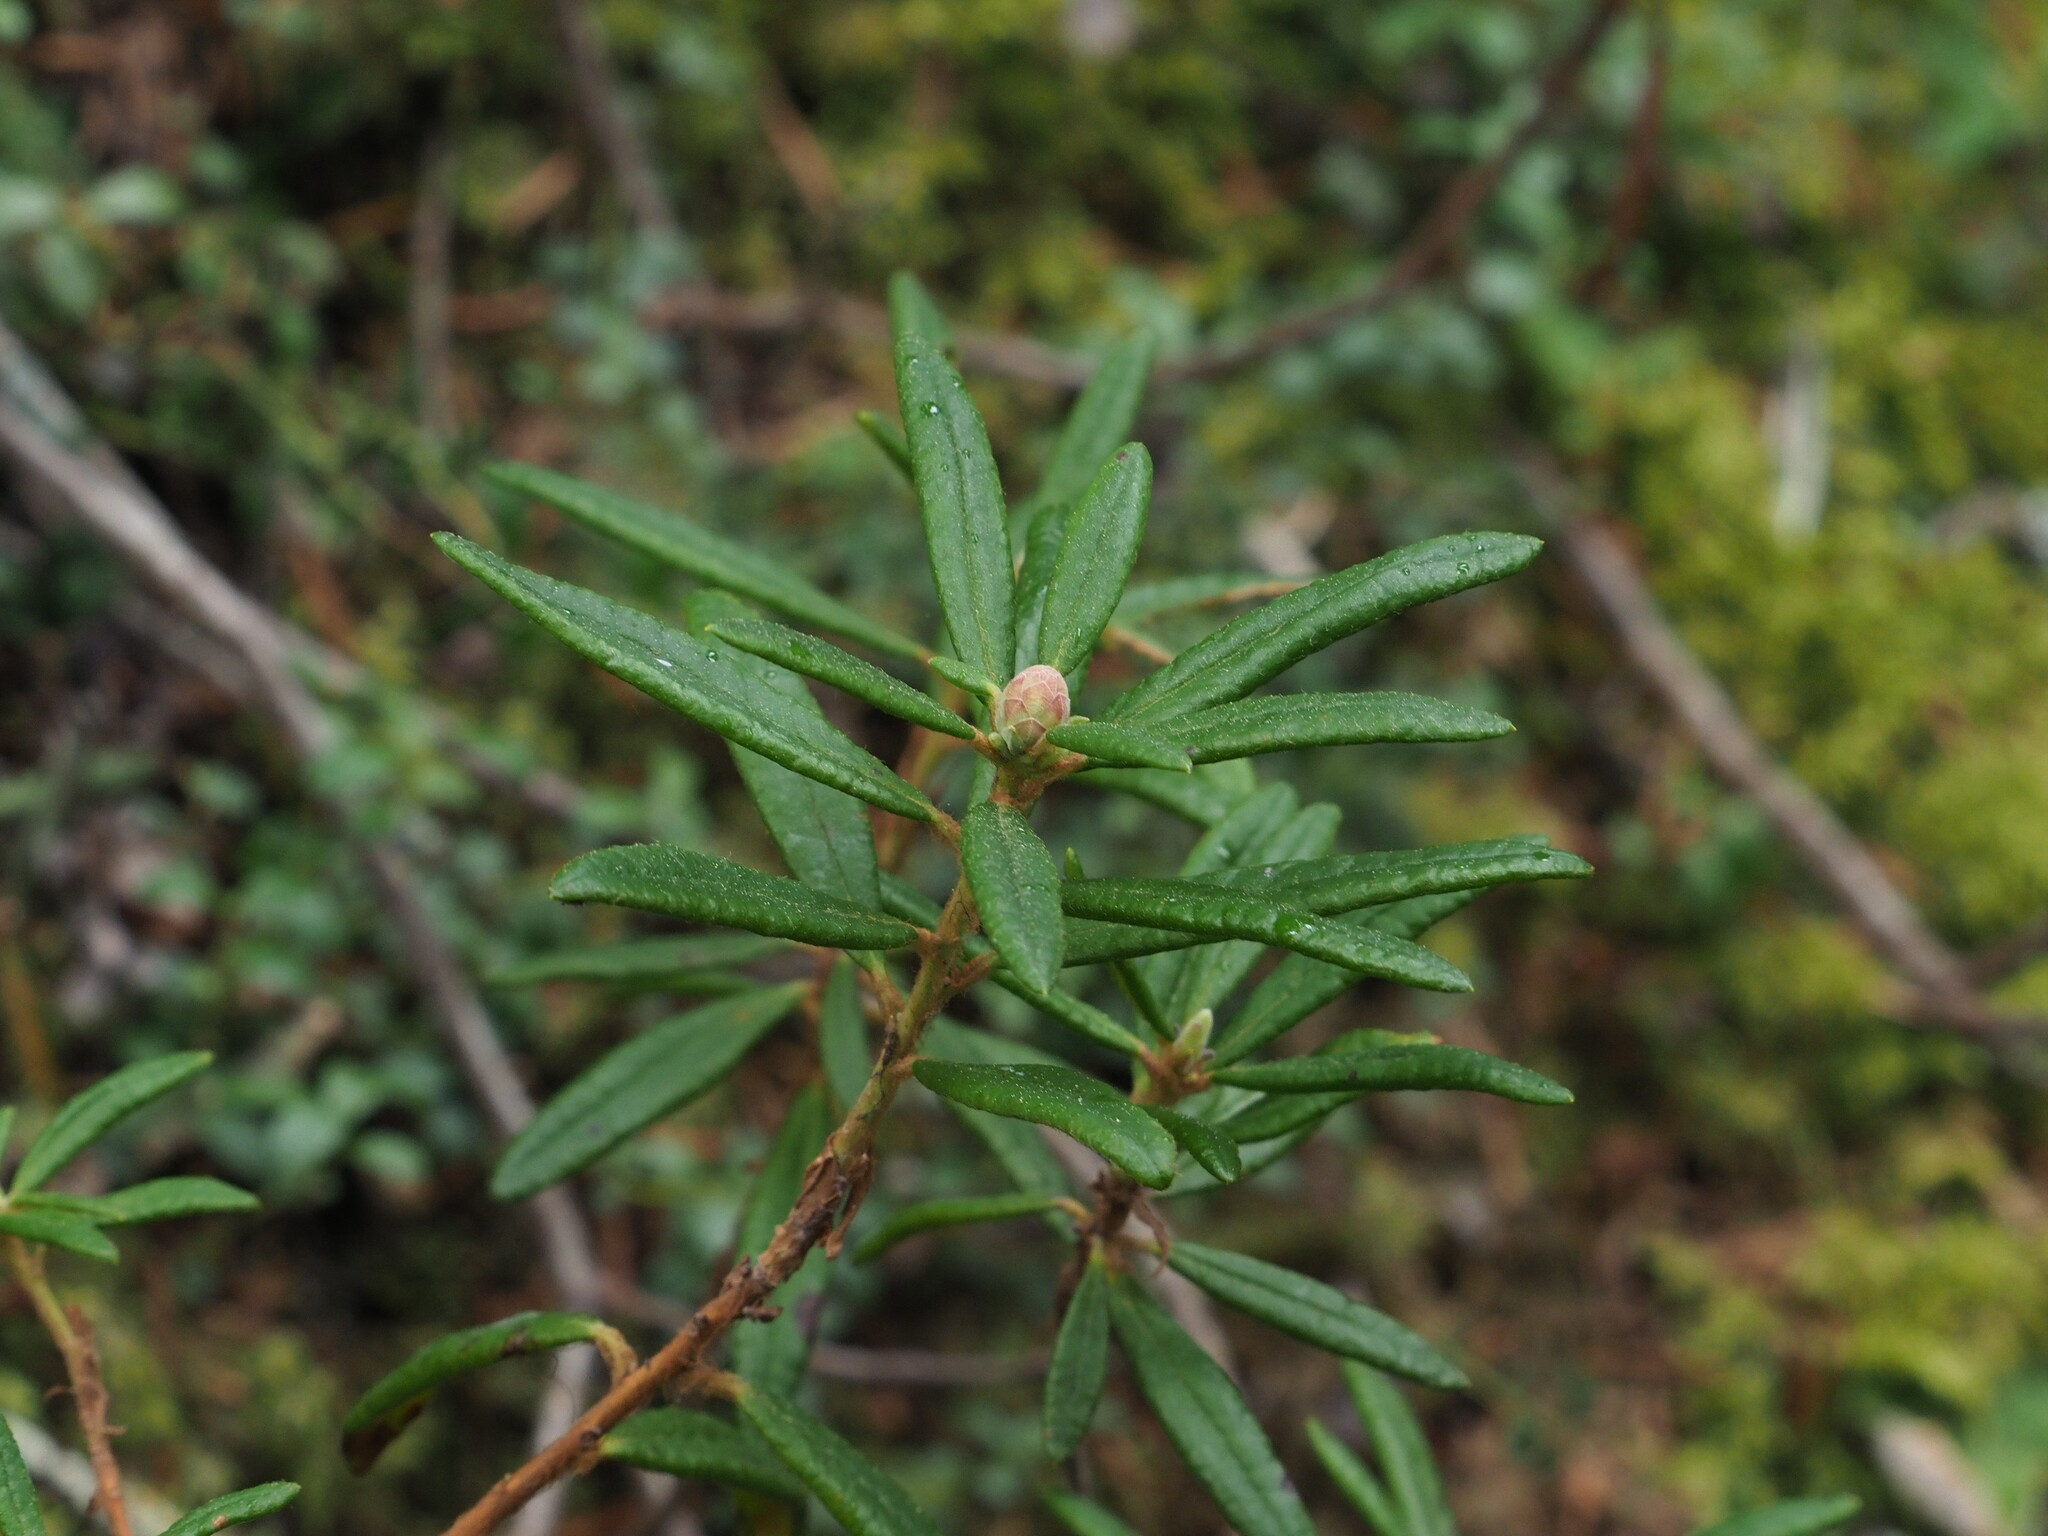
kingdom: Plantae
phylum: Tracheophyta
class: Magnoliopsida
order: Ericales
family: Ericaceae
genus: Rhododendron
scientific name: Rhododendron groenlandicum
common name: Bog labrador tea
